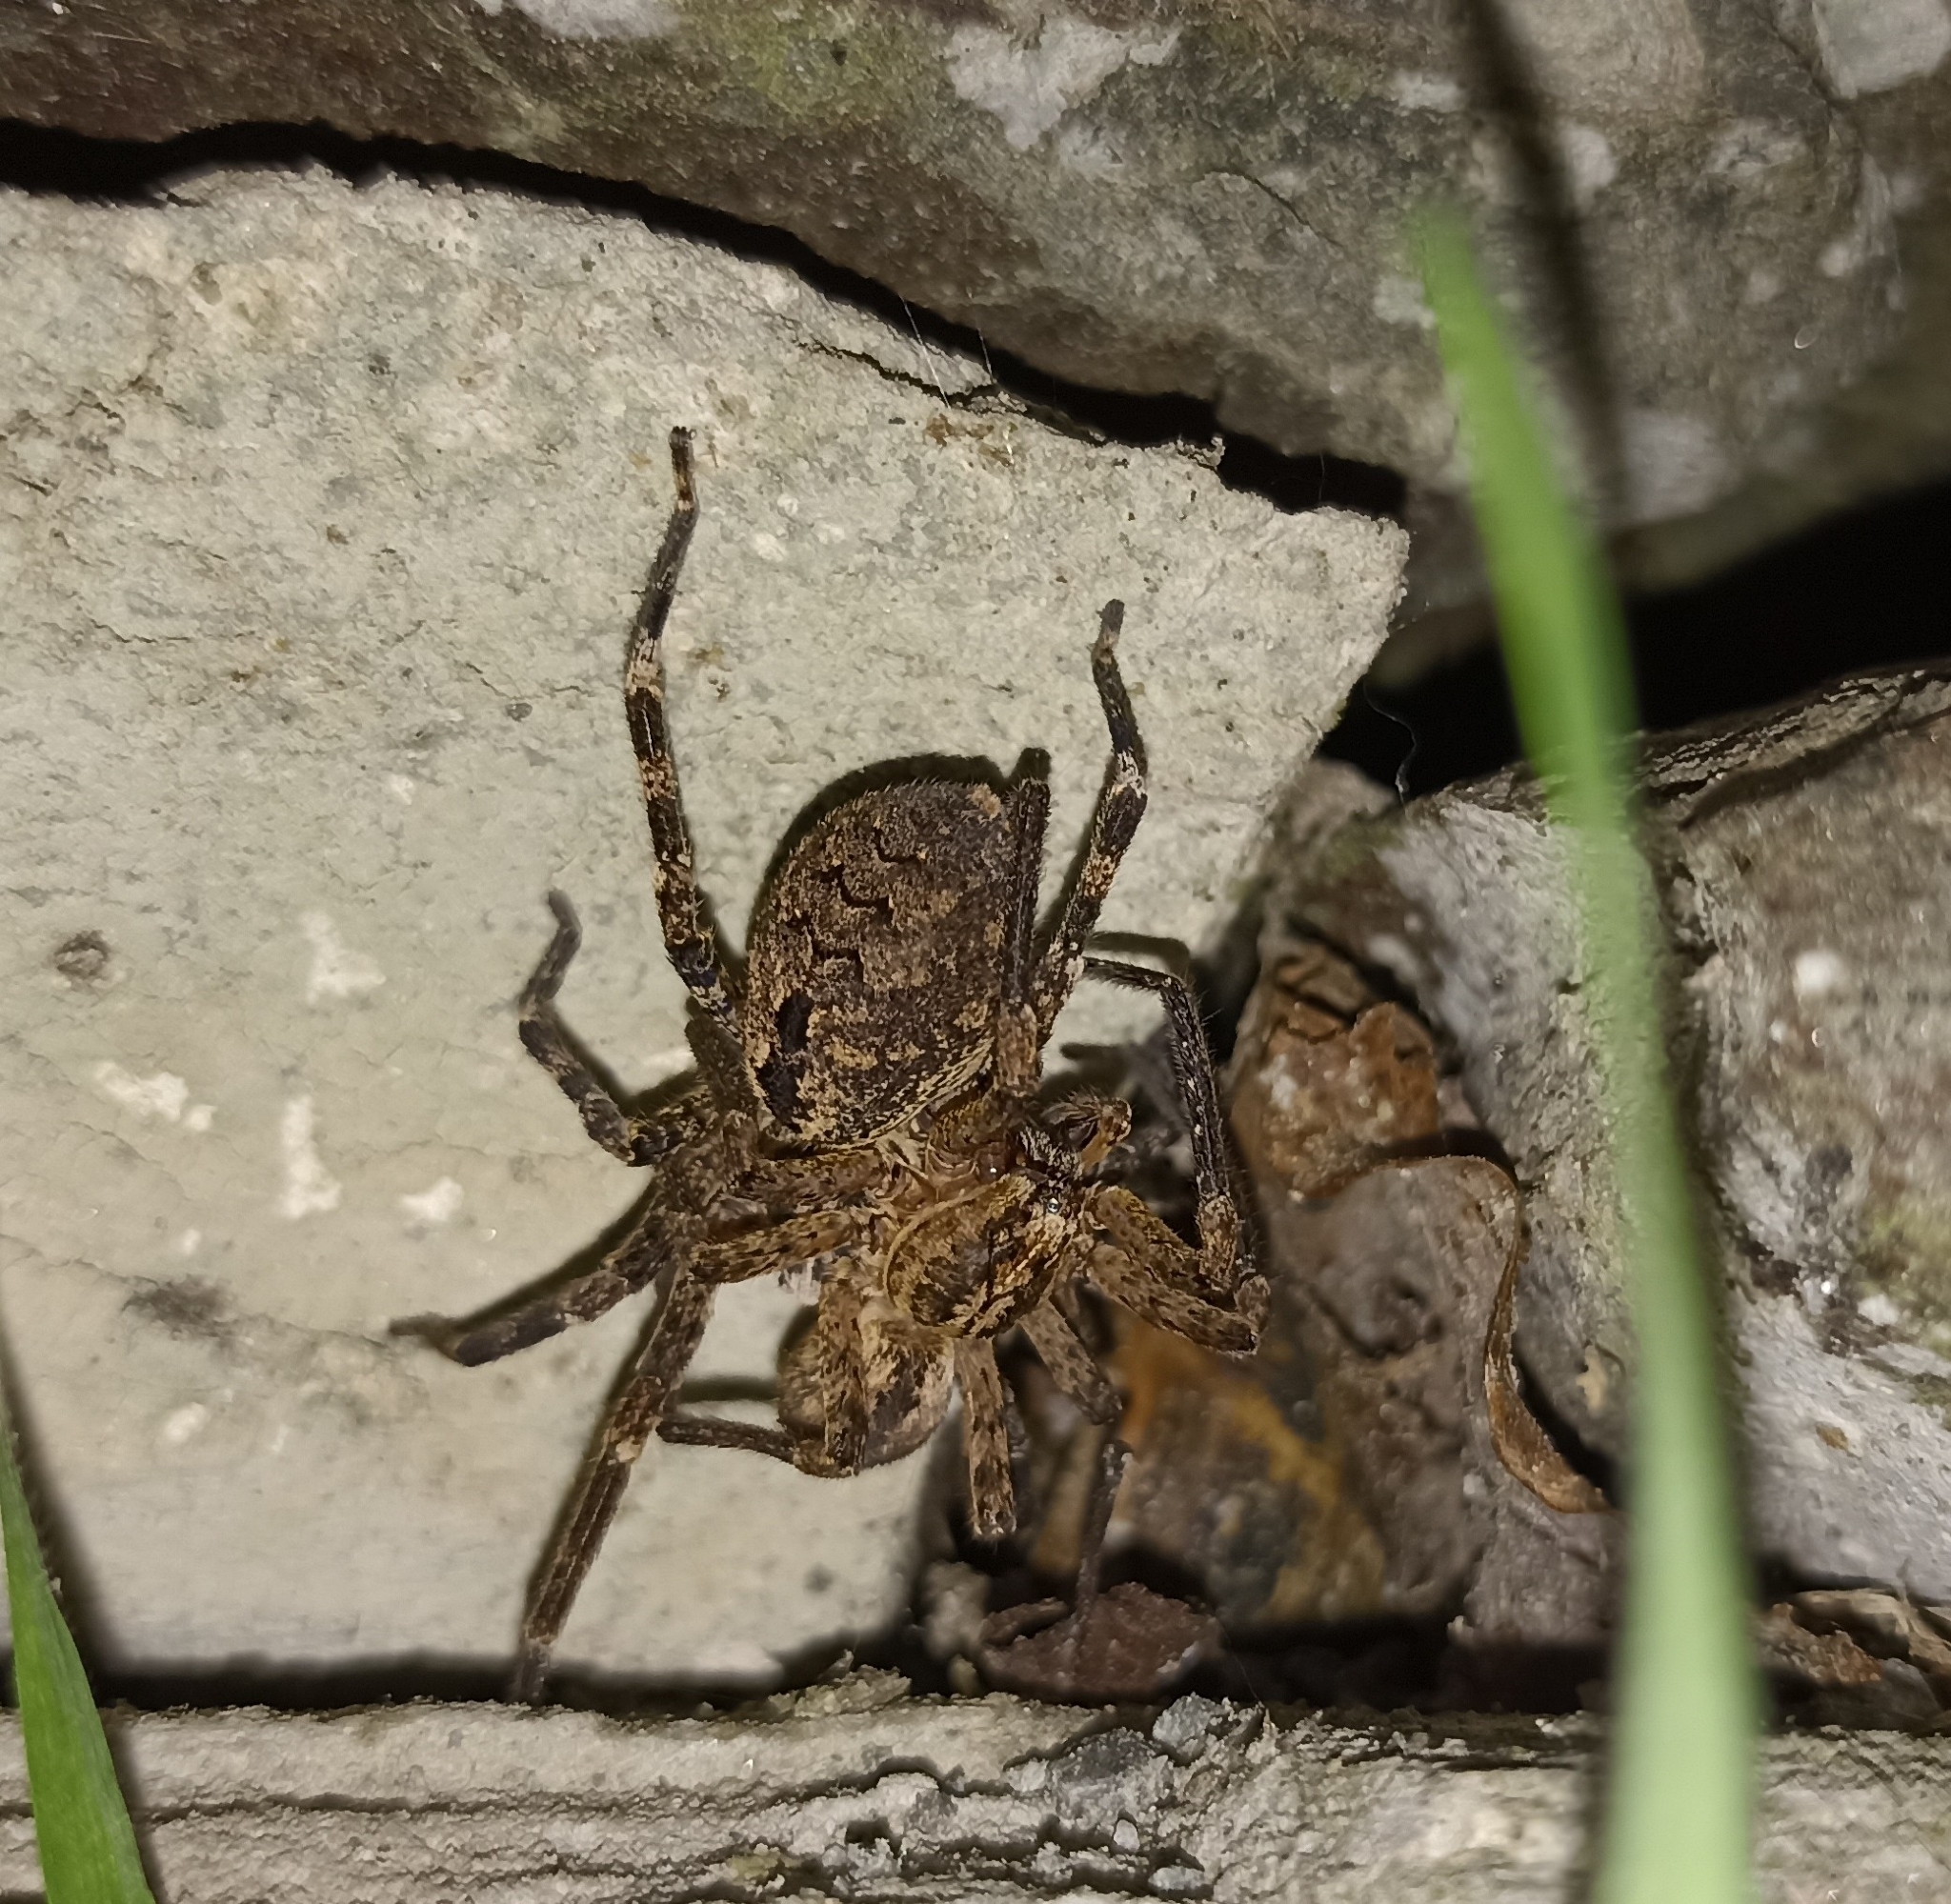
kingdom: Animalia
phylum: Arthropoda
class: Arachnida
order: Araneae
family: Zoropsidae
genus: Zoropsis
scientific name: Zoropsis spinimana
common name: Zoropsid spider
